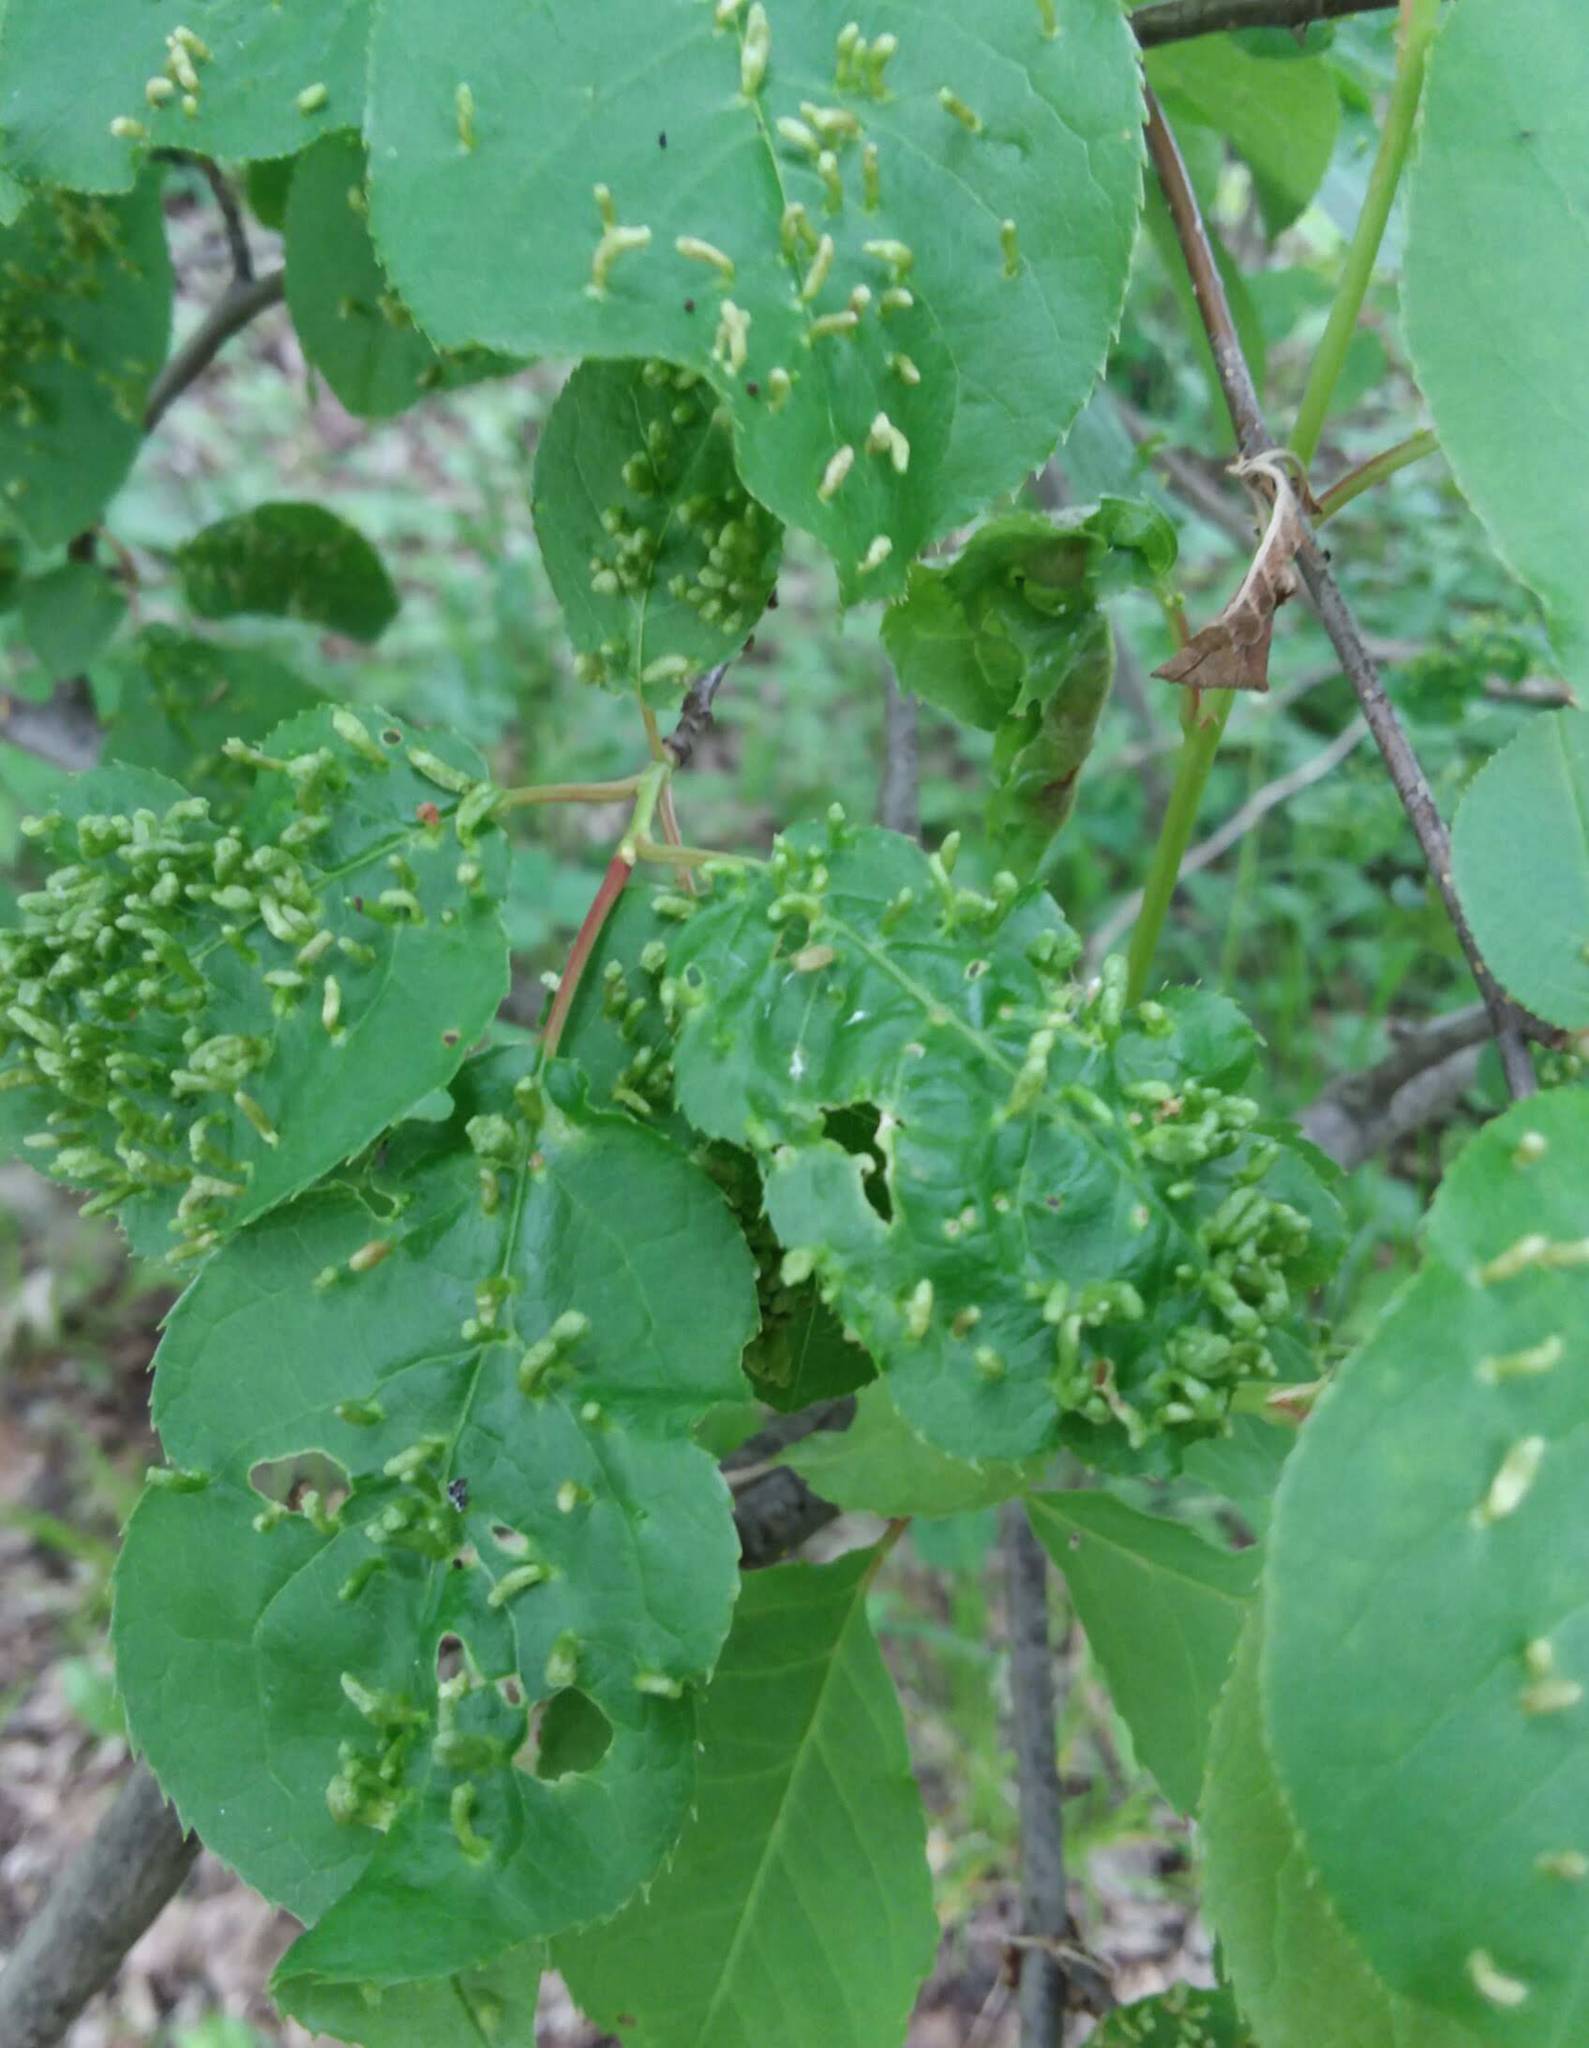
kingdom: Animalia
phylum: Arthropoda
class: Arachnida
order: Trombidiformes
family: Eriophyidae
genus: Eriophyes
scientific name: Eriophyes emarginatae
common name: Plum leaf gall mite
